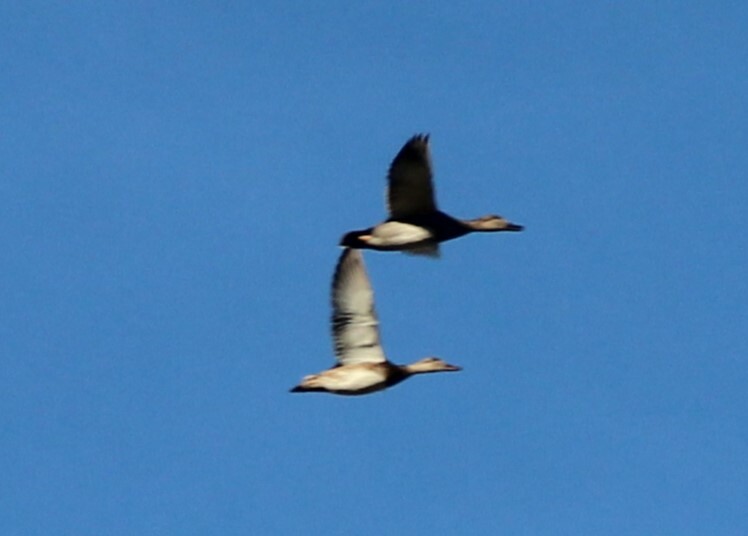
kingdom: Animalia
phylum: Chordata
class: Aves
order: Anseriformes
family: Anatidae
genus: Mareca
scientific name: Mareca strepera
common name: Gadwall
